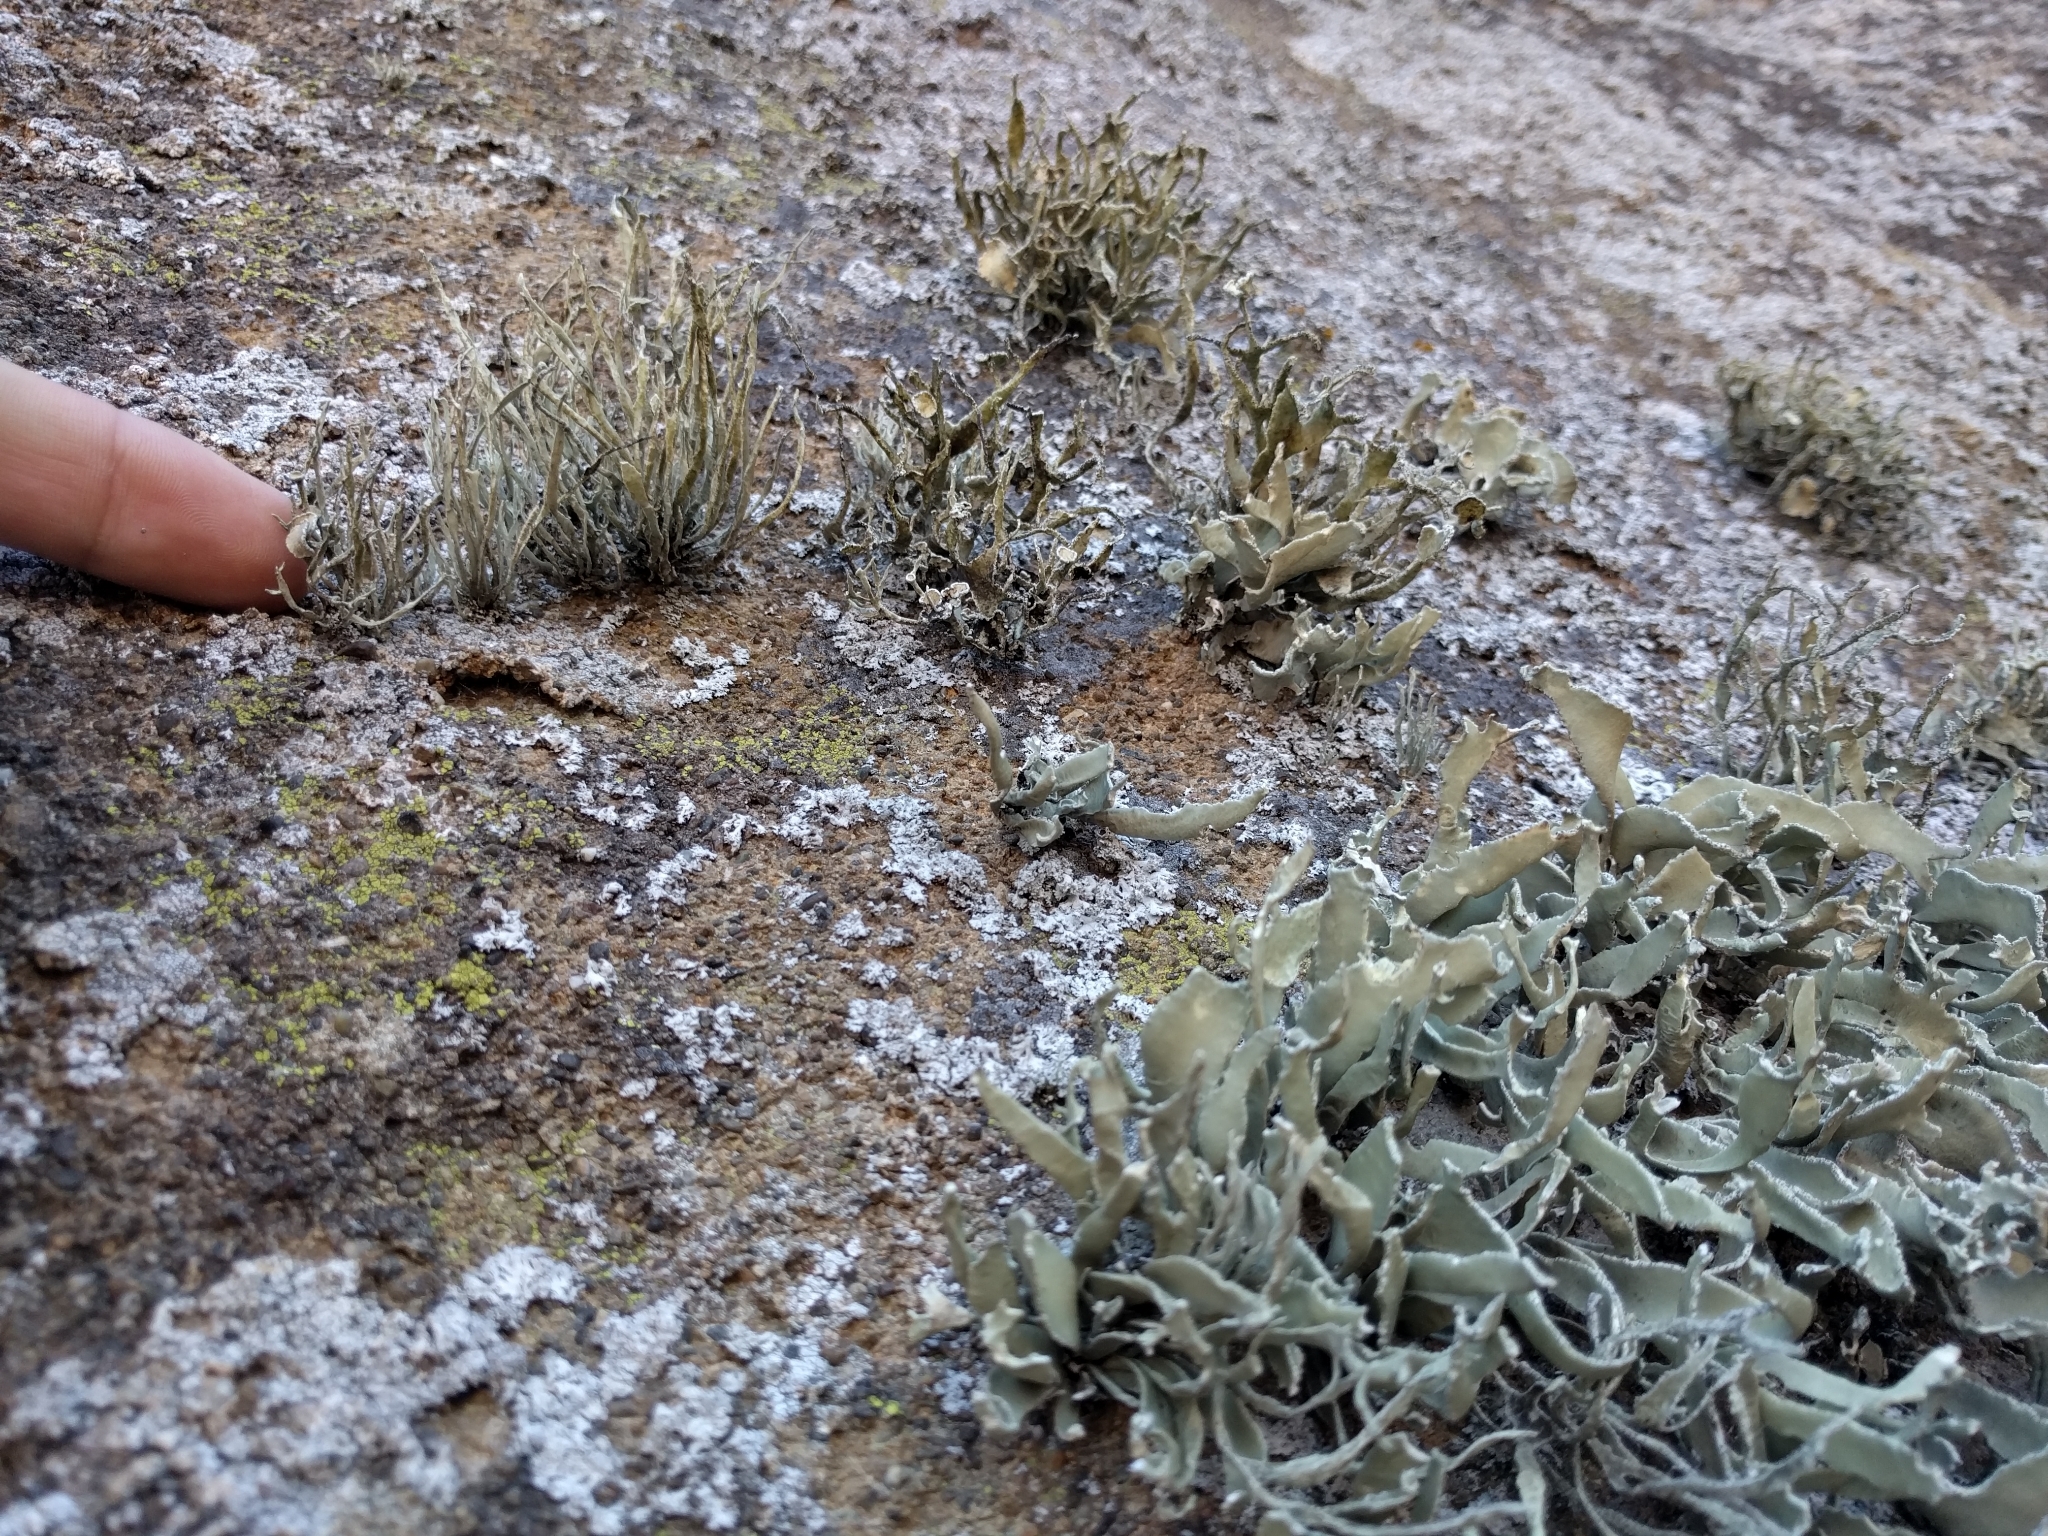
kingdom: Fungi
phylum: Ascomycota
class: Lecanoromycetes
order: Lecanorales
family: Ramalinaceae
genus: Niebla
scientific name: Niebla laevigata
